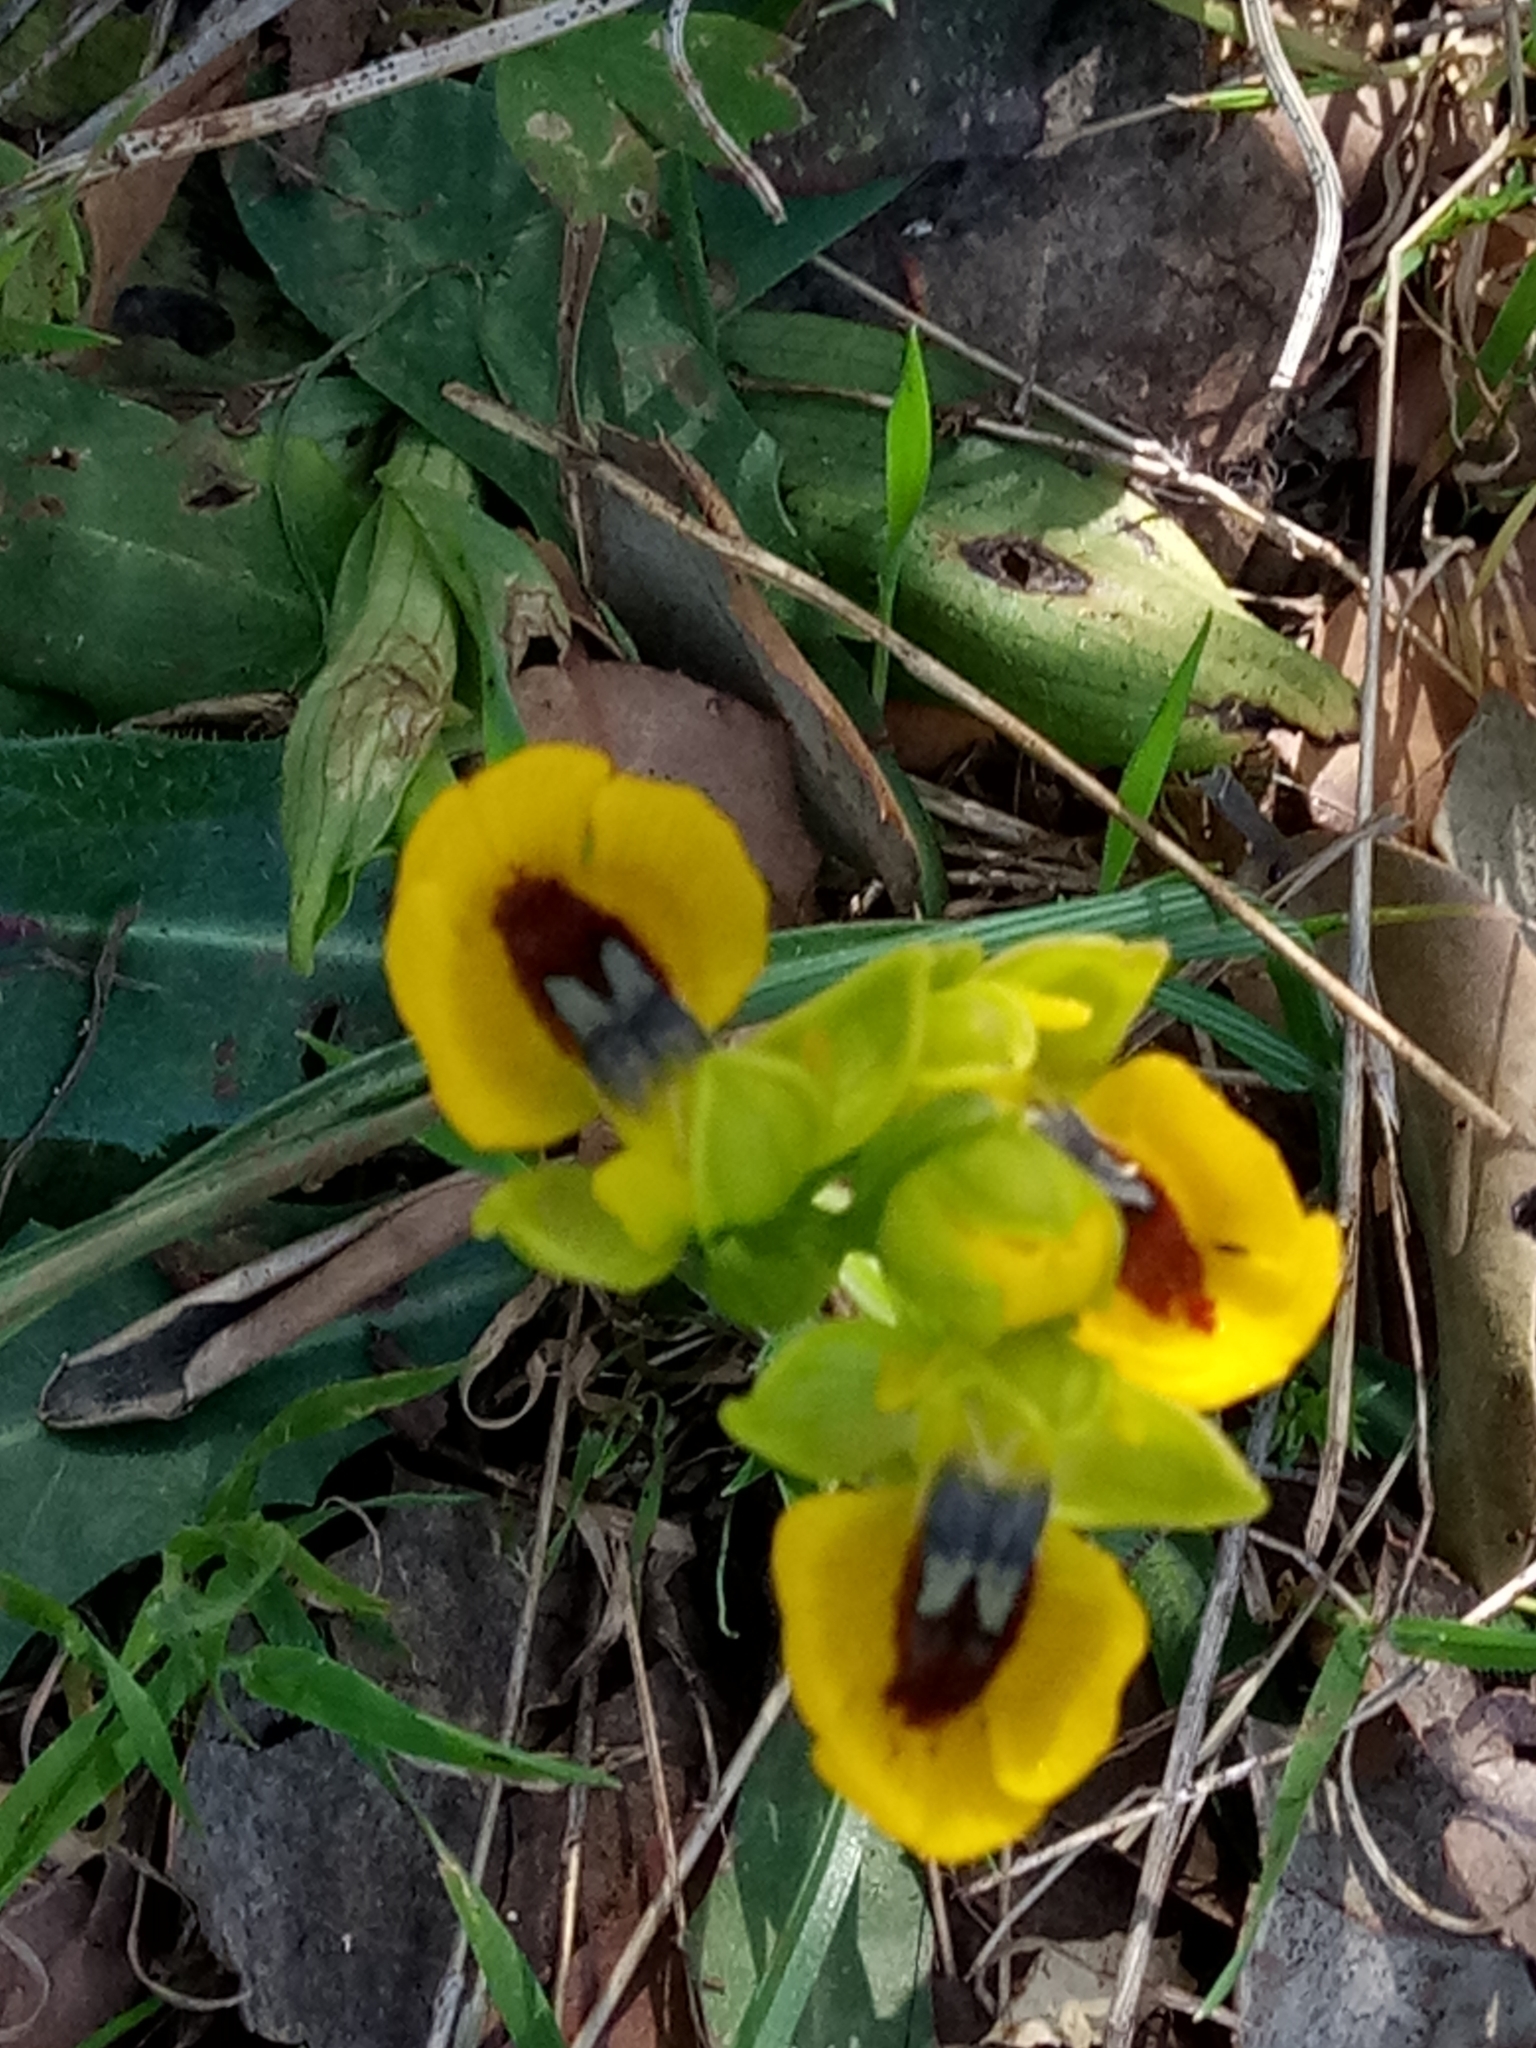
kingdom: Plantae
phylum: Tracheophyta
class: Liliopsida
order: Asparagales
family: Orchidaceae
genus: Ophrys
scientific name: Ophrys lutea
